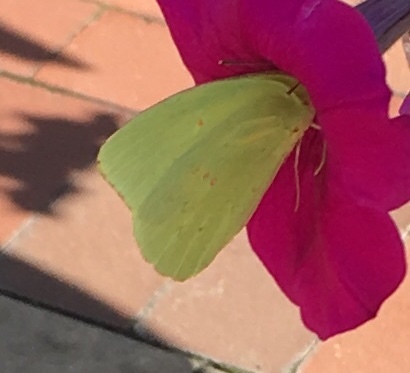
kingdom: Animalia
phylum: Arthropoda
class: Insecta
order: Lepidoptera
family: Pieridae
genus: Phoebis
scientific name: Phoebis sennae
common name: Cloudless sulphur
